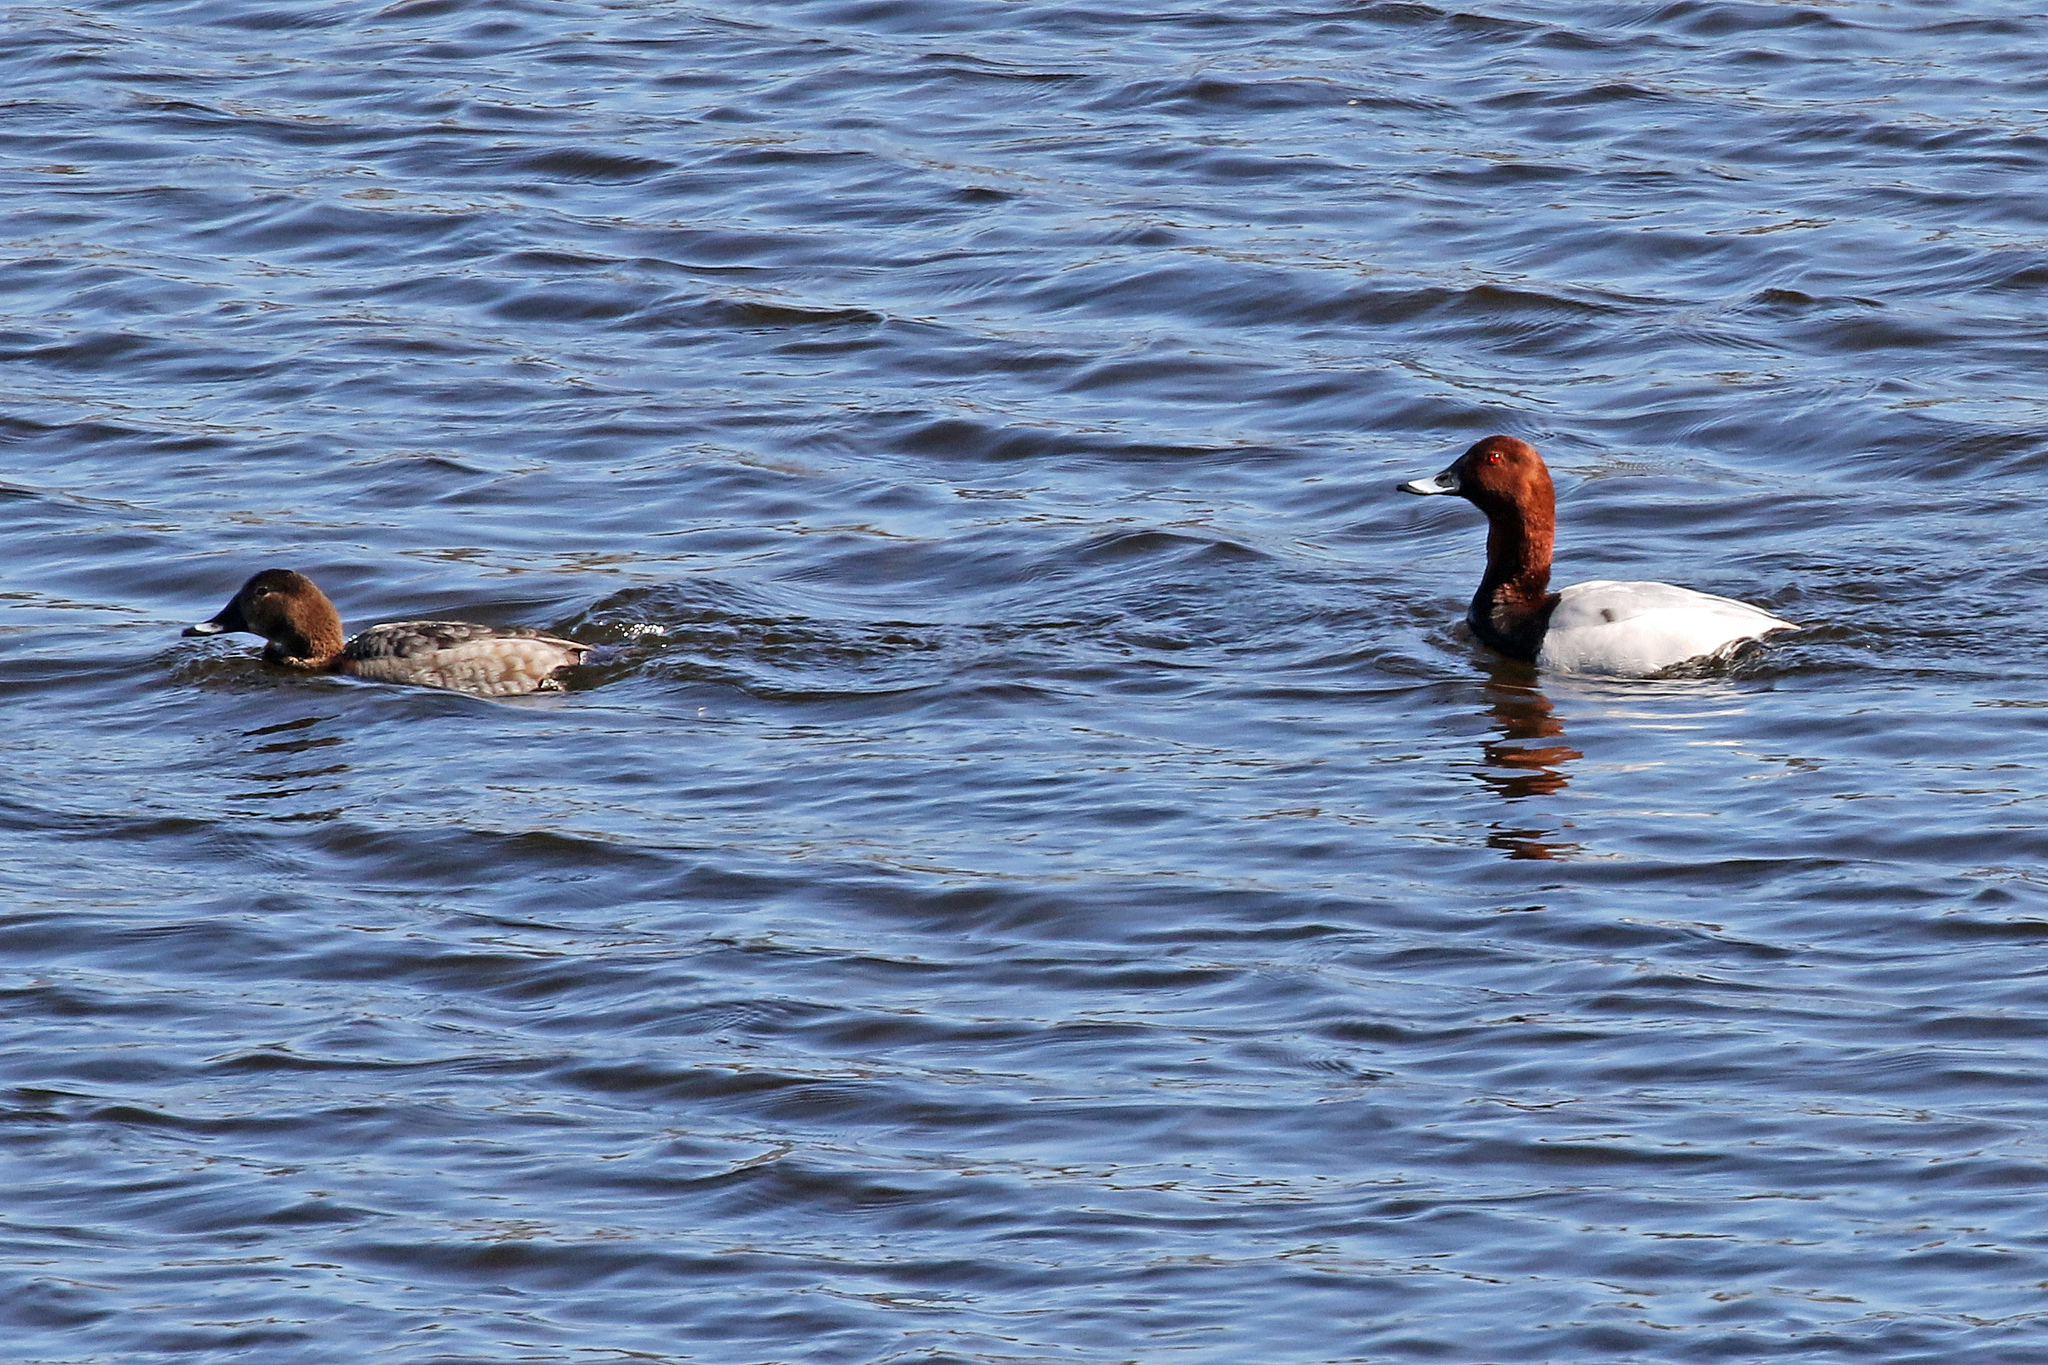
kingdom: Animalia
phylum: Chordata
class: Aves
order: Anseriformes
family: Anatidae
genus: Aythya
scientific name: Aythya ferina
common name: Common pochard
